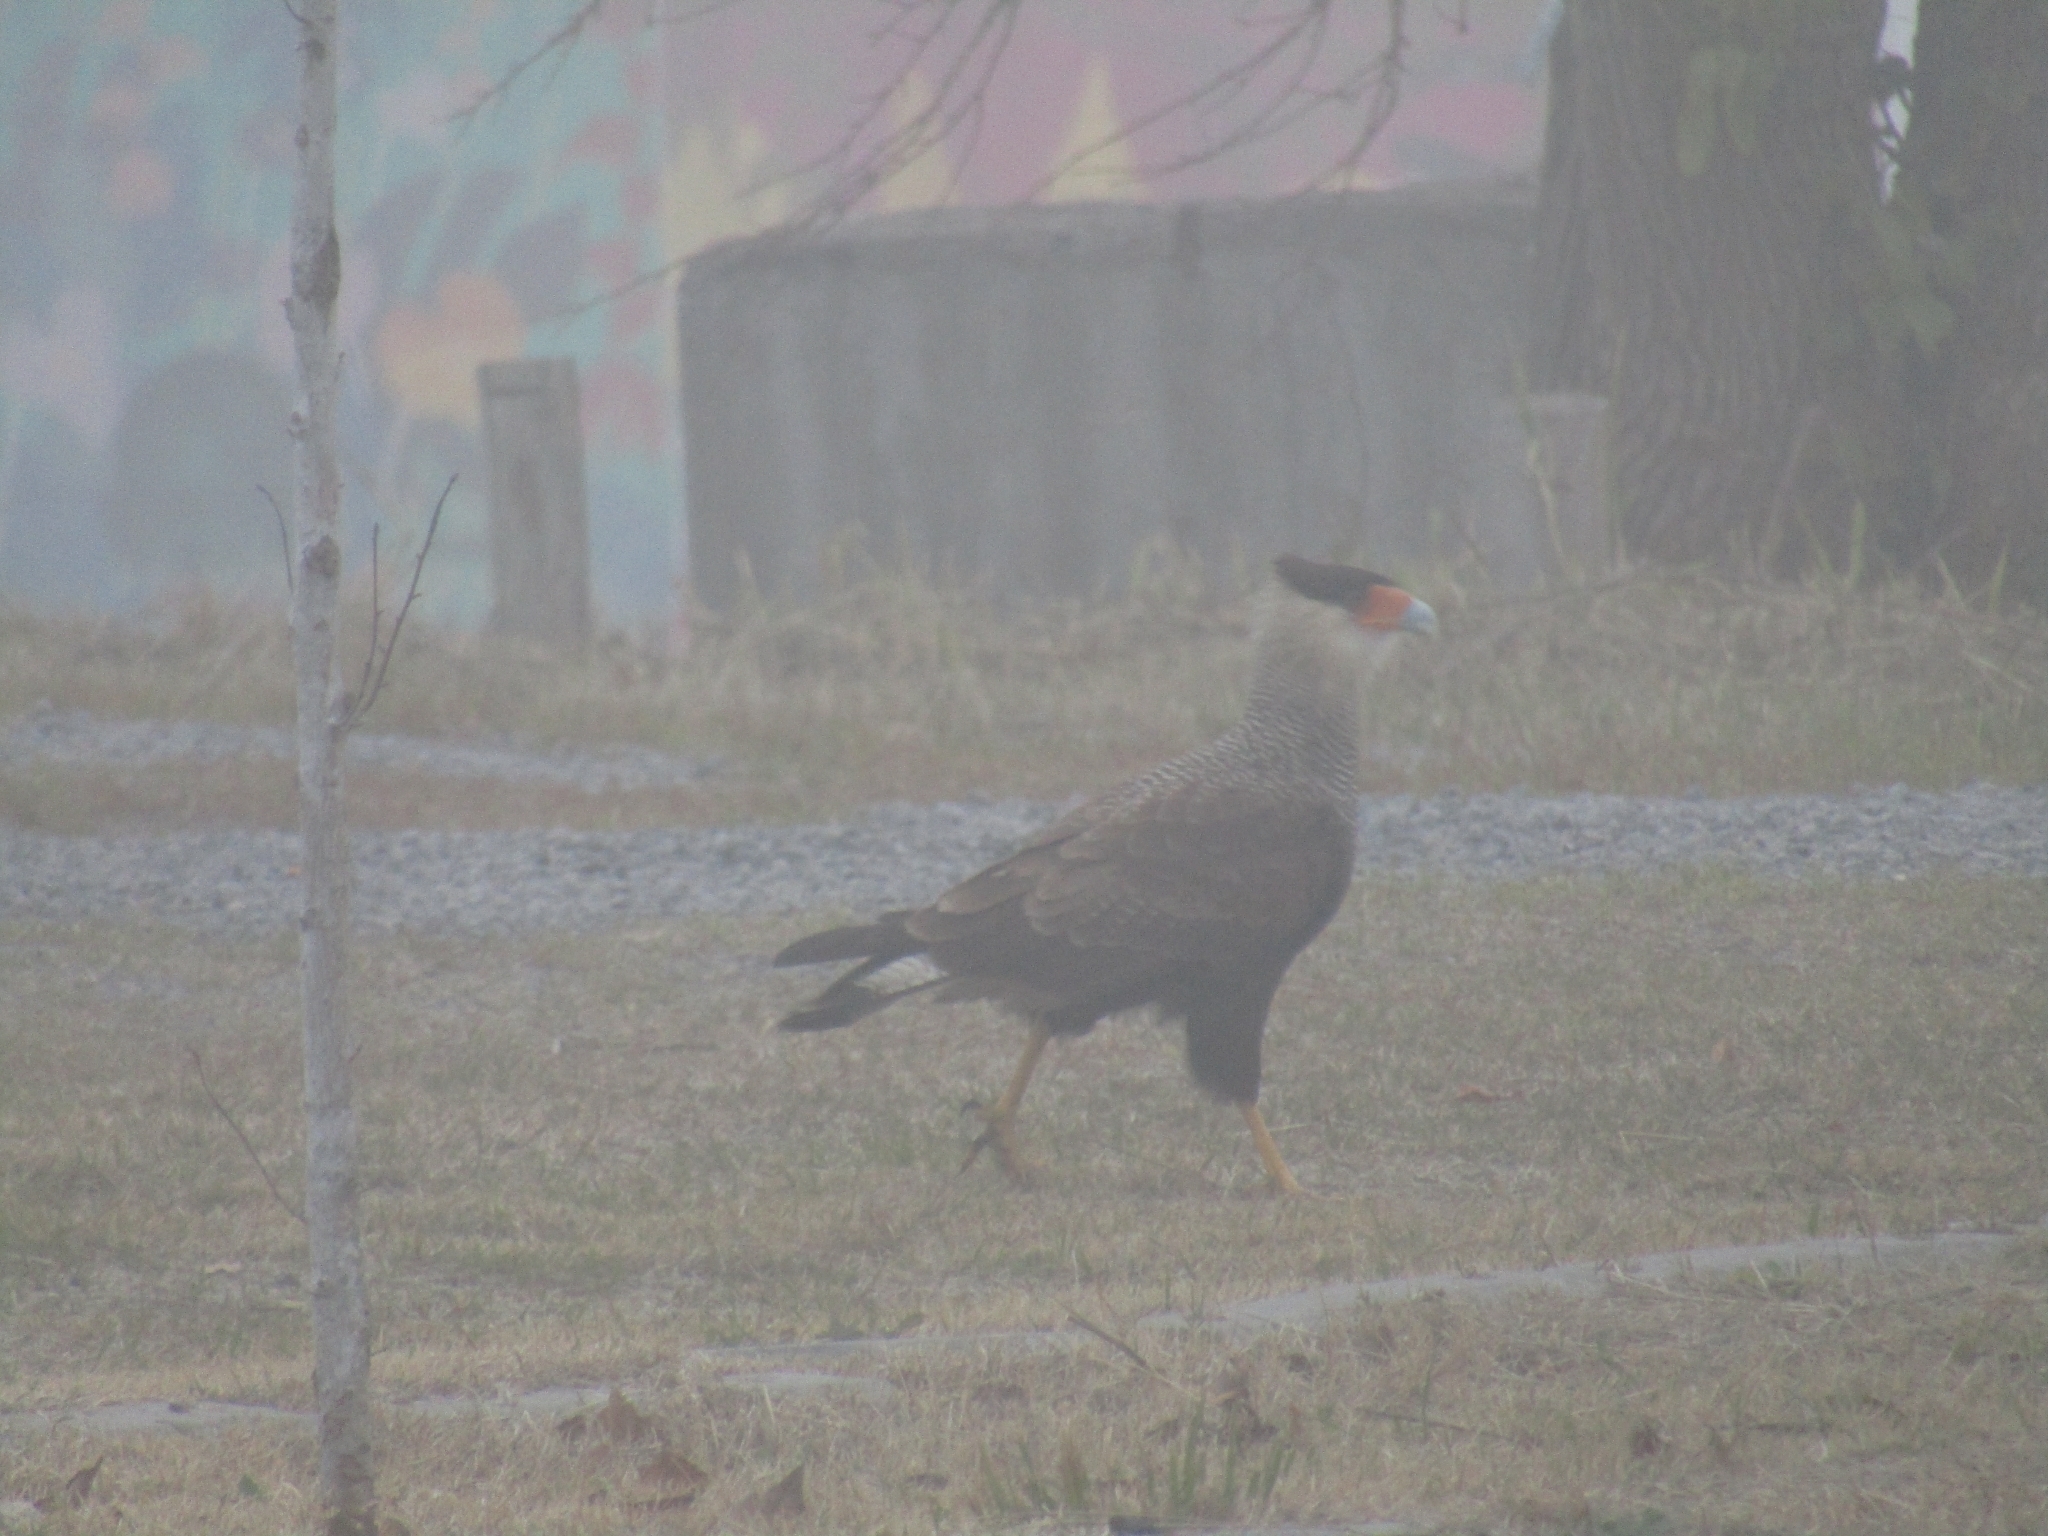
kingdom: Animalia
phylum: Chordata
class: Aves
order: Falconiformes
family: Falconidae
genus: Caracara
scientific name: Caracara plancus
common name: Southern caracara
